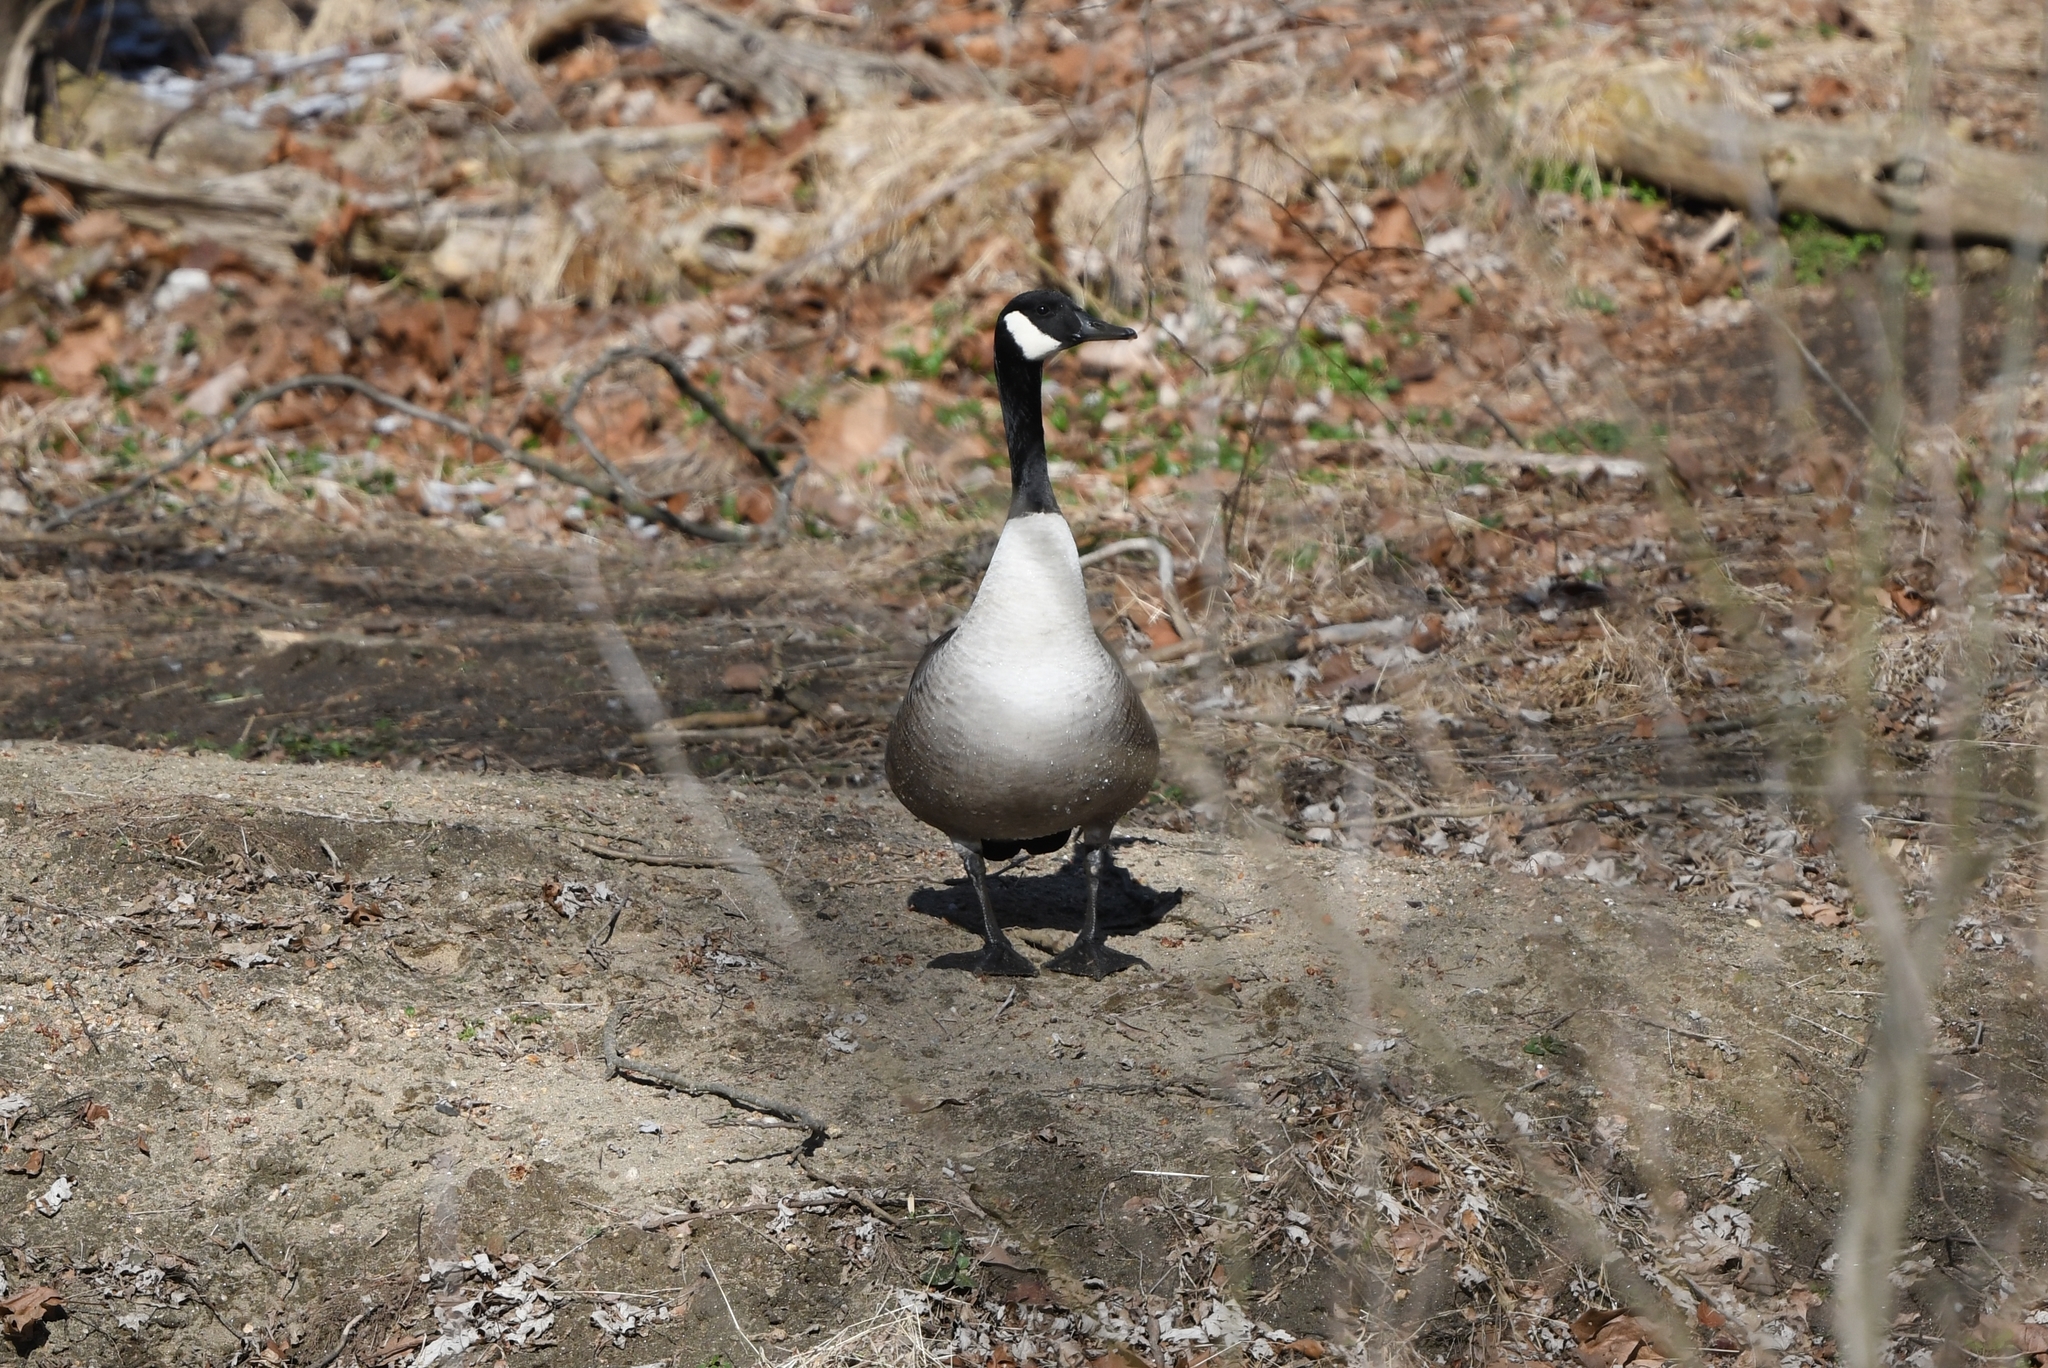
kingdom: Animalia
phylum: Chordata
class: Aves
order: Anseriformes
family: Anatidae
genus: Branta
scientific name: Branta canadensis
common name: Canada goose
